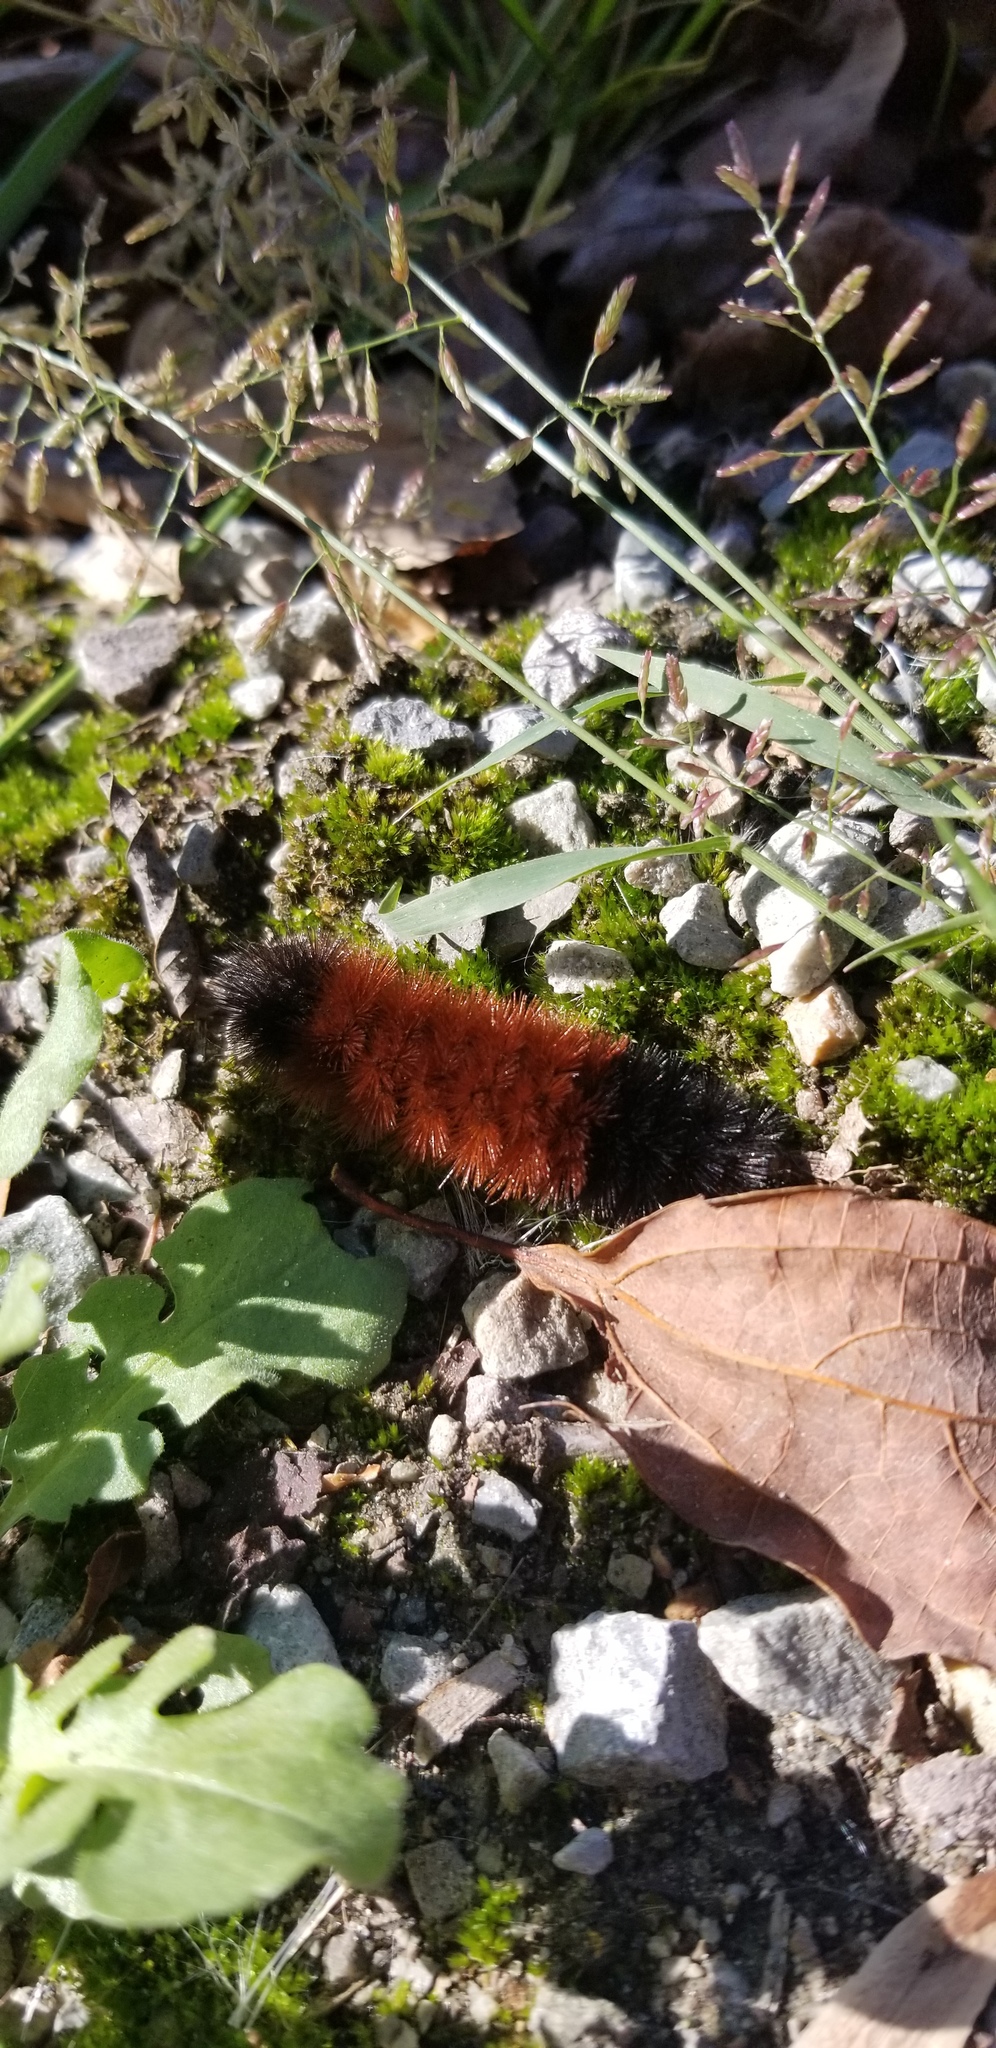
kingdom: Animalia
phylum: Arthropoda
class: Insecta
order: Lepidoptera
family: Erebidae
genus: Pyrrharctia
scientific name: Pyrrharctia isabella
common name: Isabella tiger moth
